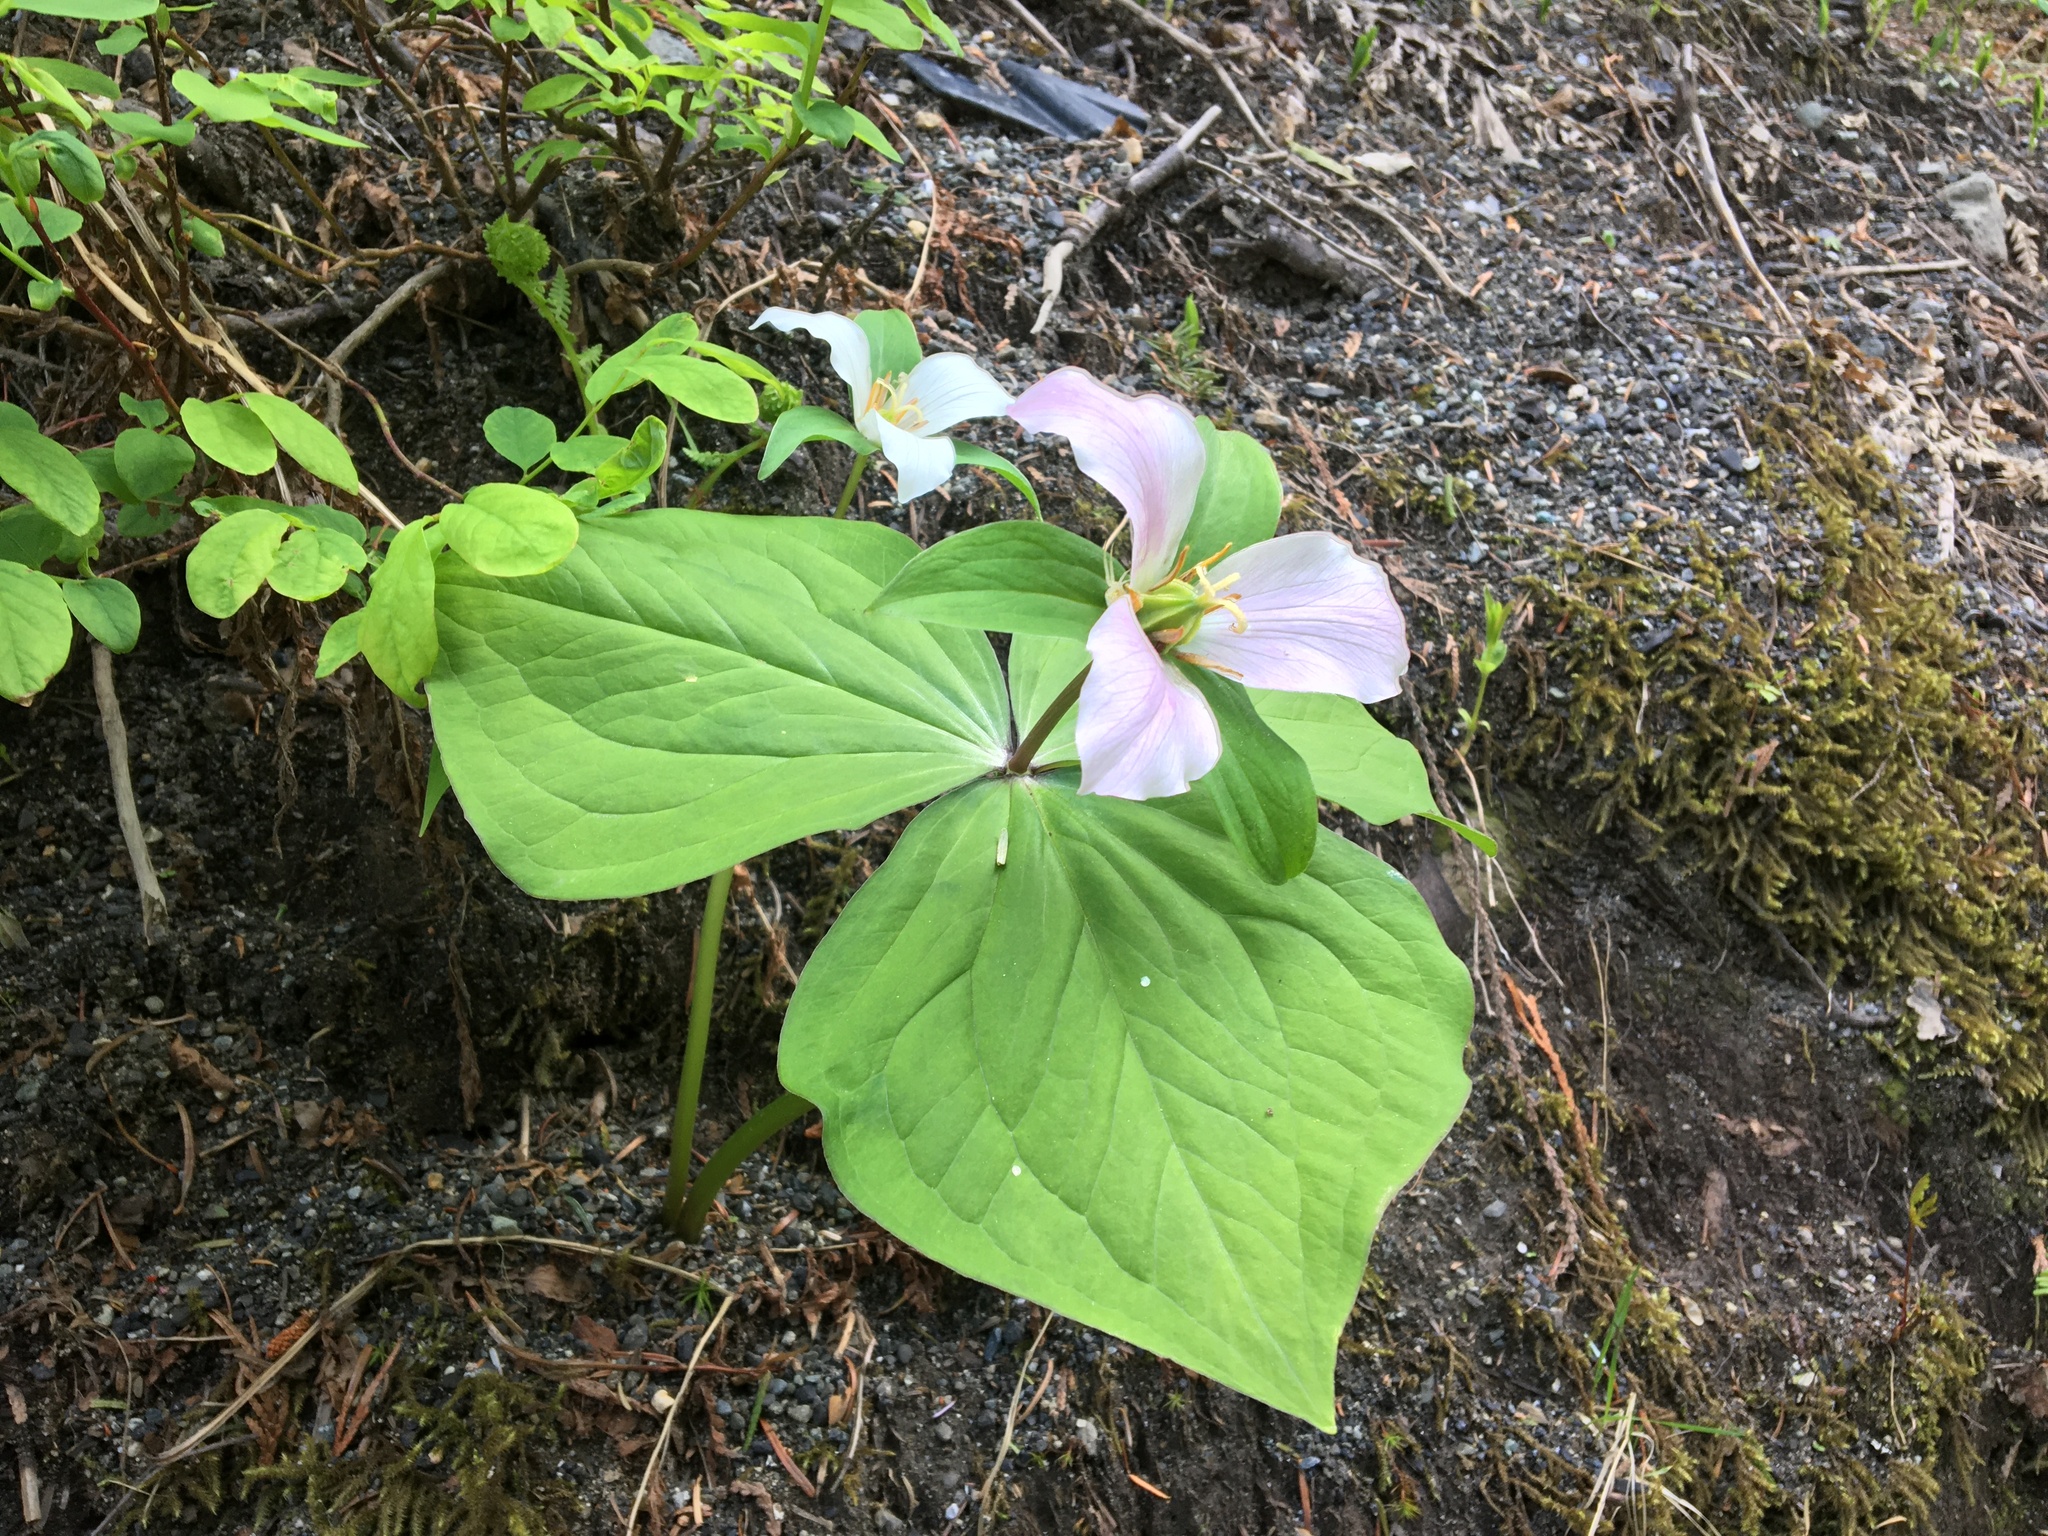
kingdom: Plantae
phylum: Tracheophyta
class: Liliopsida
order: Liliales
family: Melanthiaceae
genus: Trillium
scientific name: Trillium ovatum
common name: Pacific trillium
